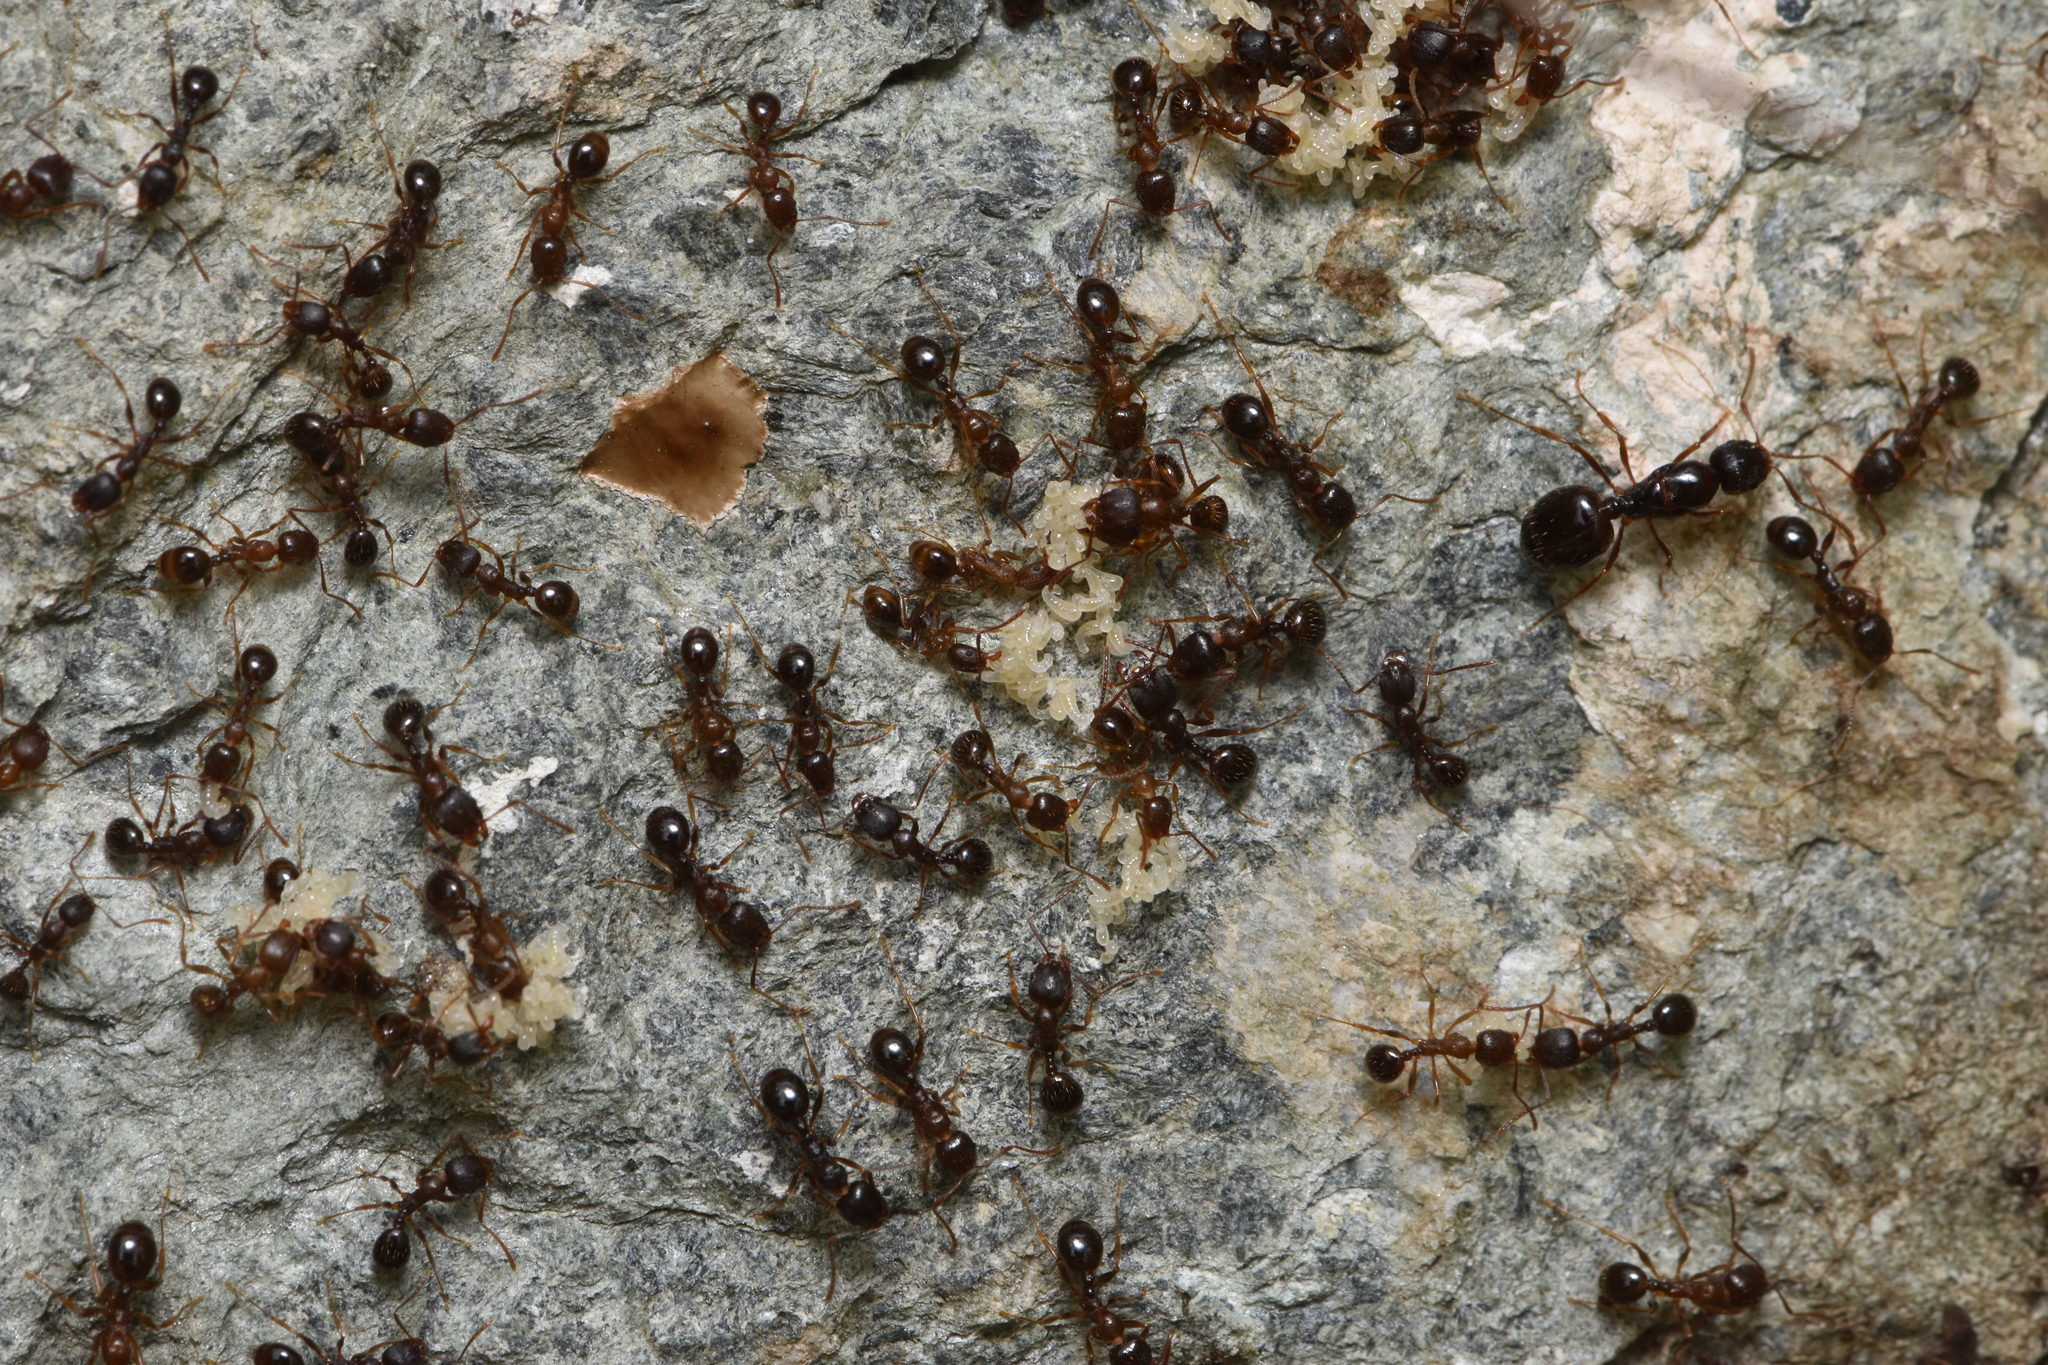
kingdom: Animalia
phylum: Arthropoda
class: Insecta
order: Hymenoptera
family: Formicidae
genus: Aphaenogaster
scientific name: Aphaenogaster occidentalis
